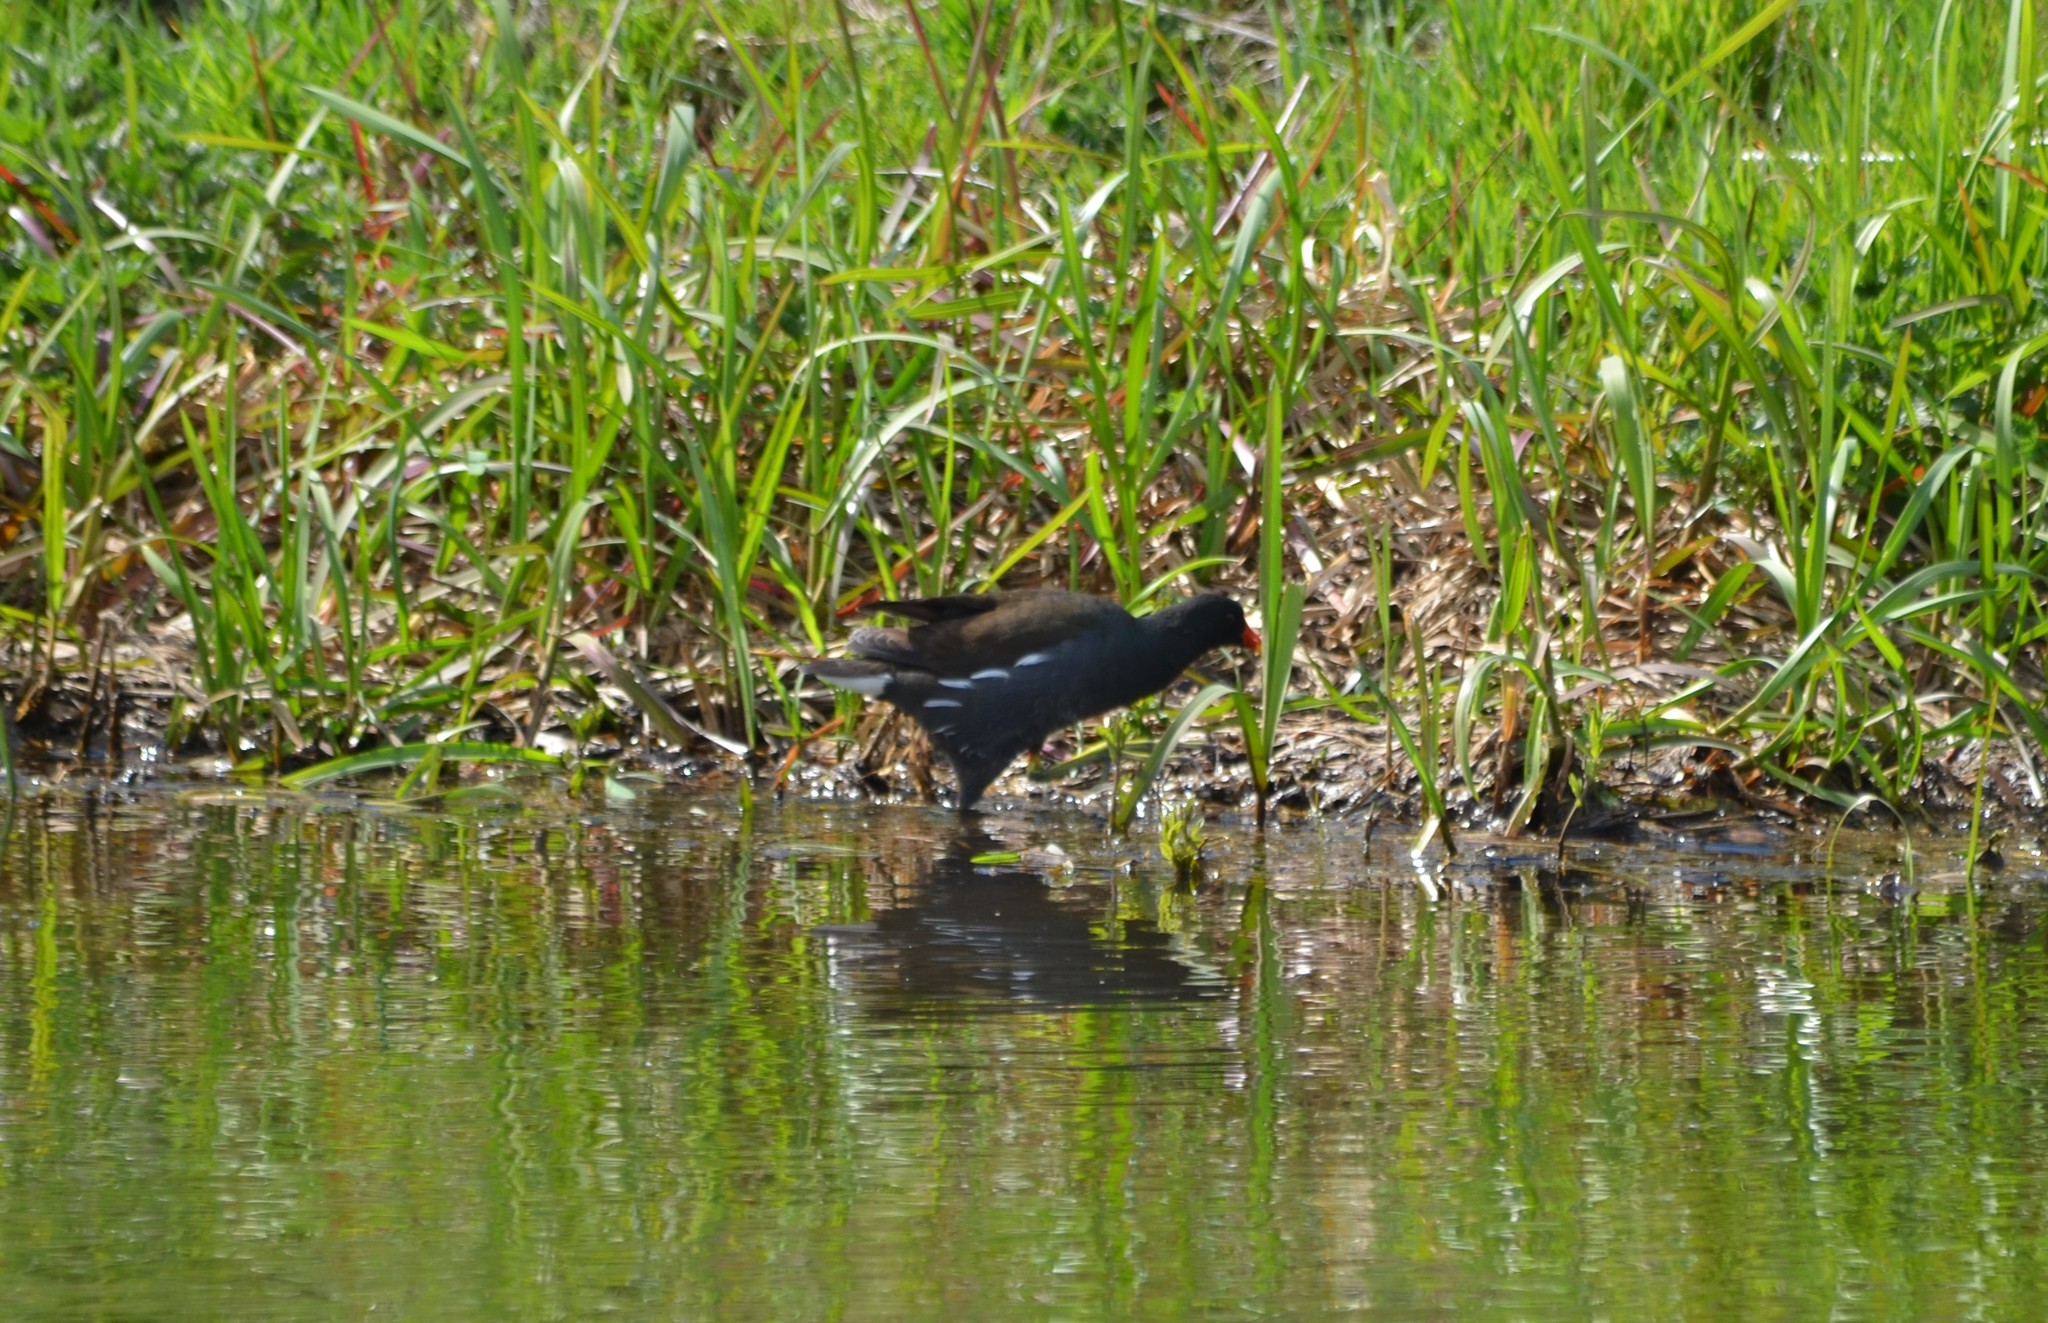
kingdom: Animalia
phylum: Chordata
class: Aves
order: Gruiformes
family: Rallidae
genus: Gallinula
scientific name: Gallinula chloropus
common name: Common moorhen
